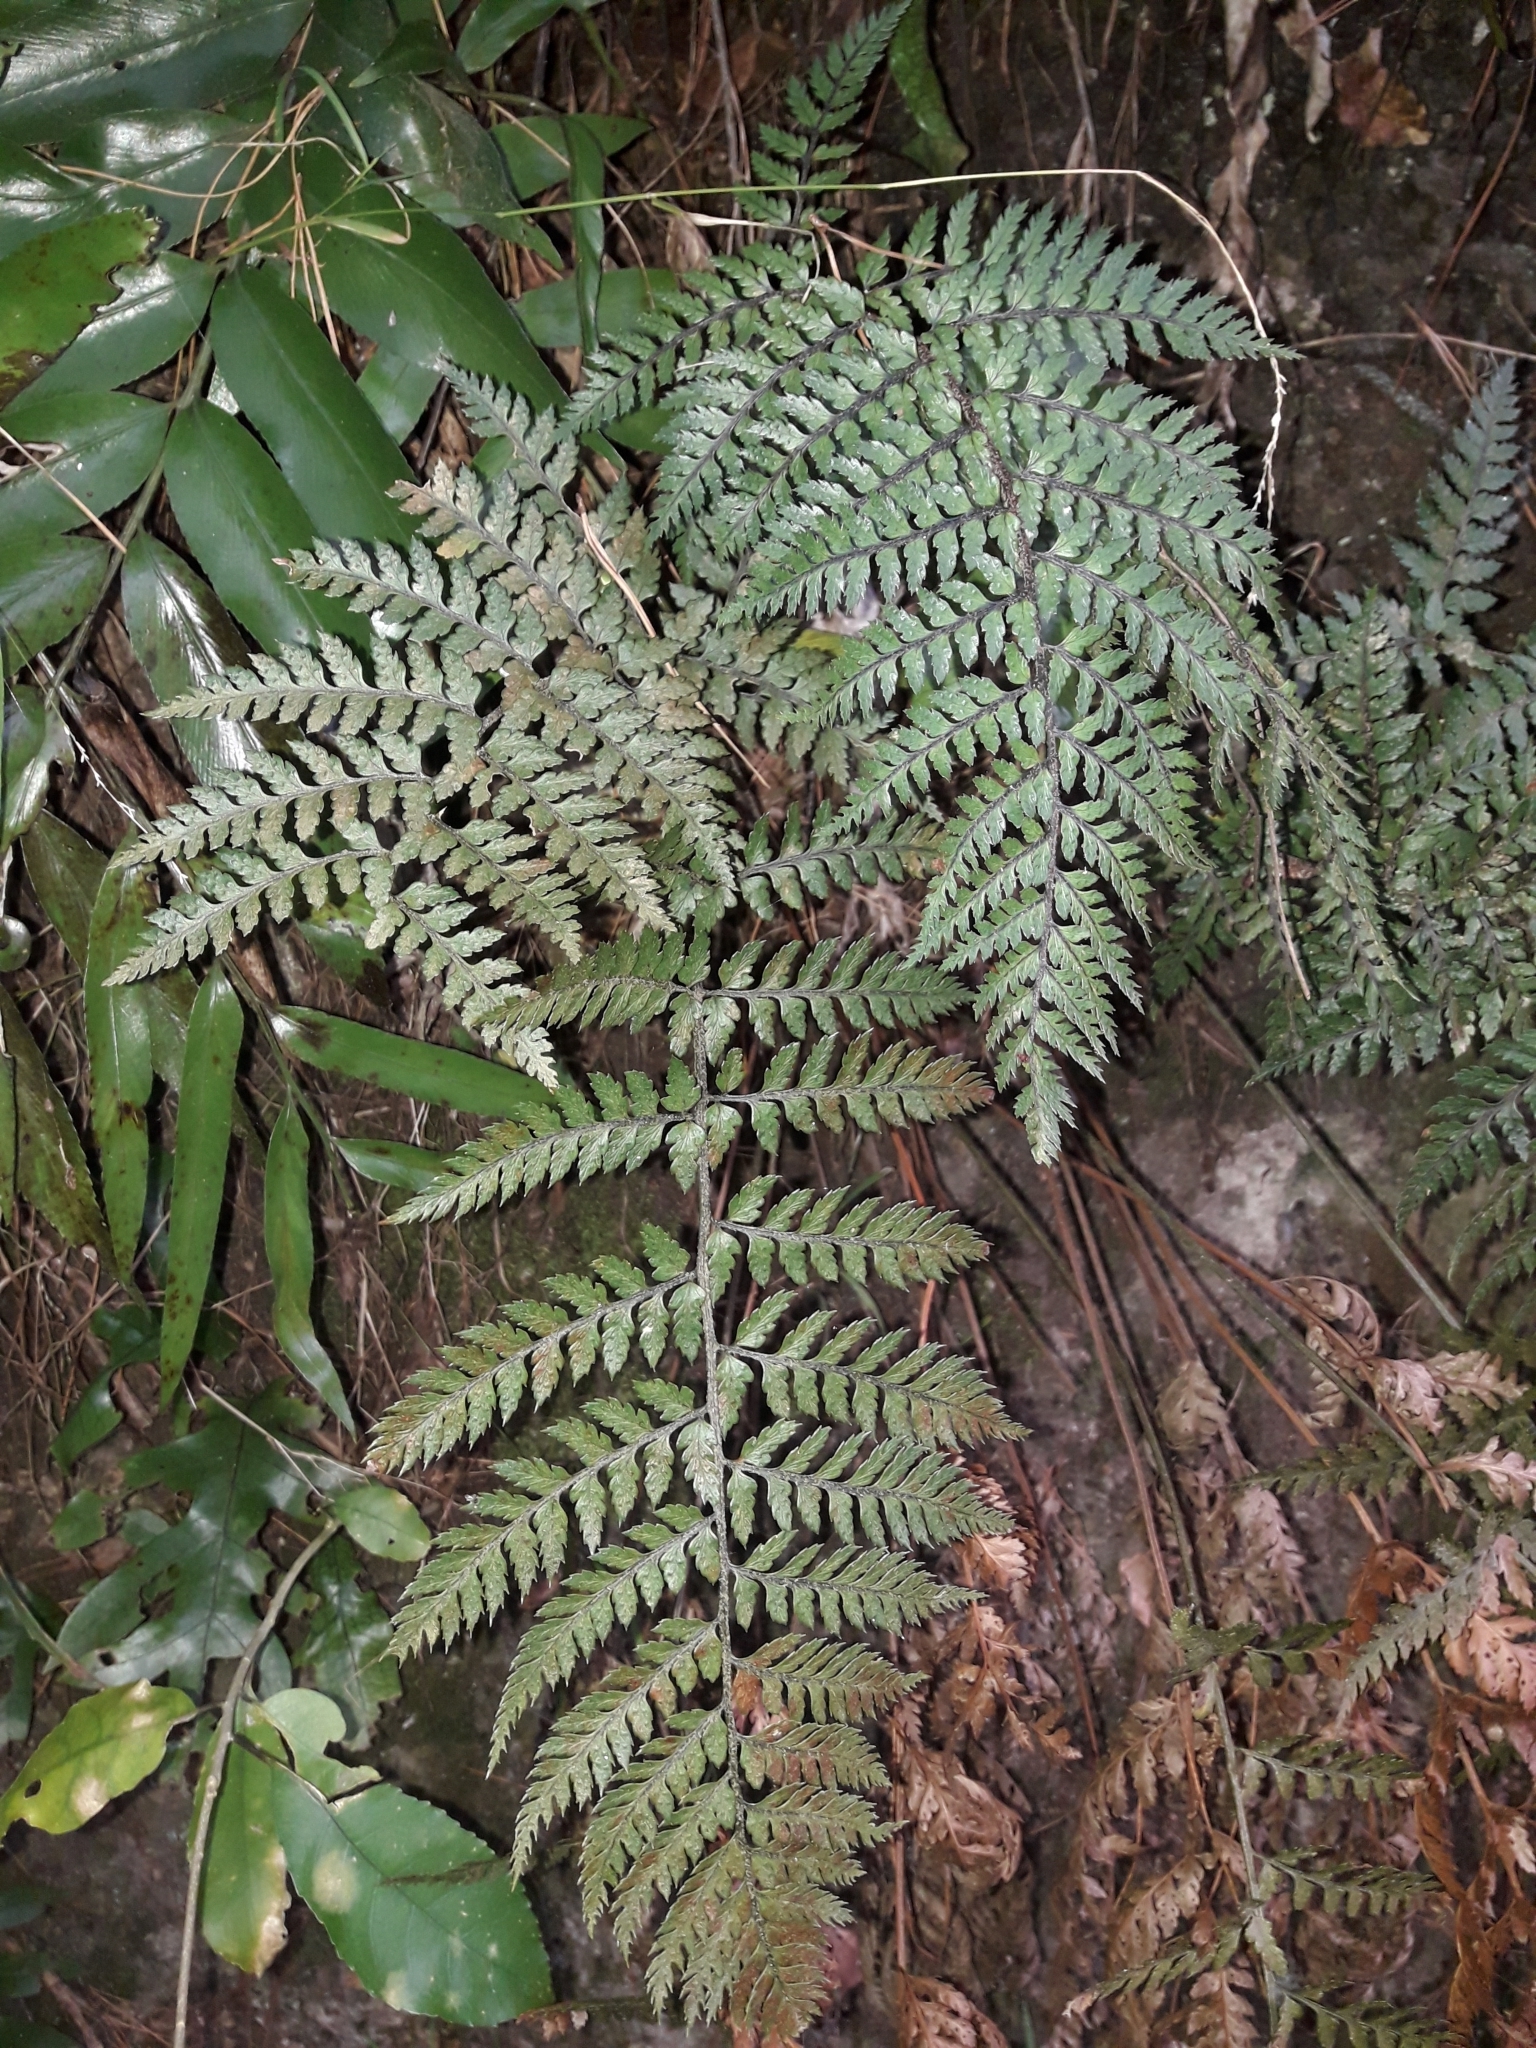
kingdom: Plantae
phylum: Tracheophyta
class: Polypodiopsida
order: Polypodiales
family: Dryopteridaceae
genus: Polystichum
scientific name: Polystichum neozelandicum
